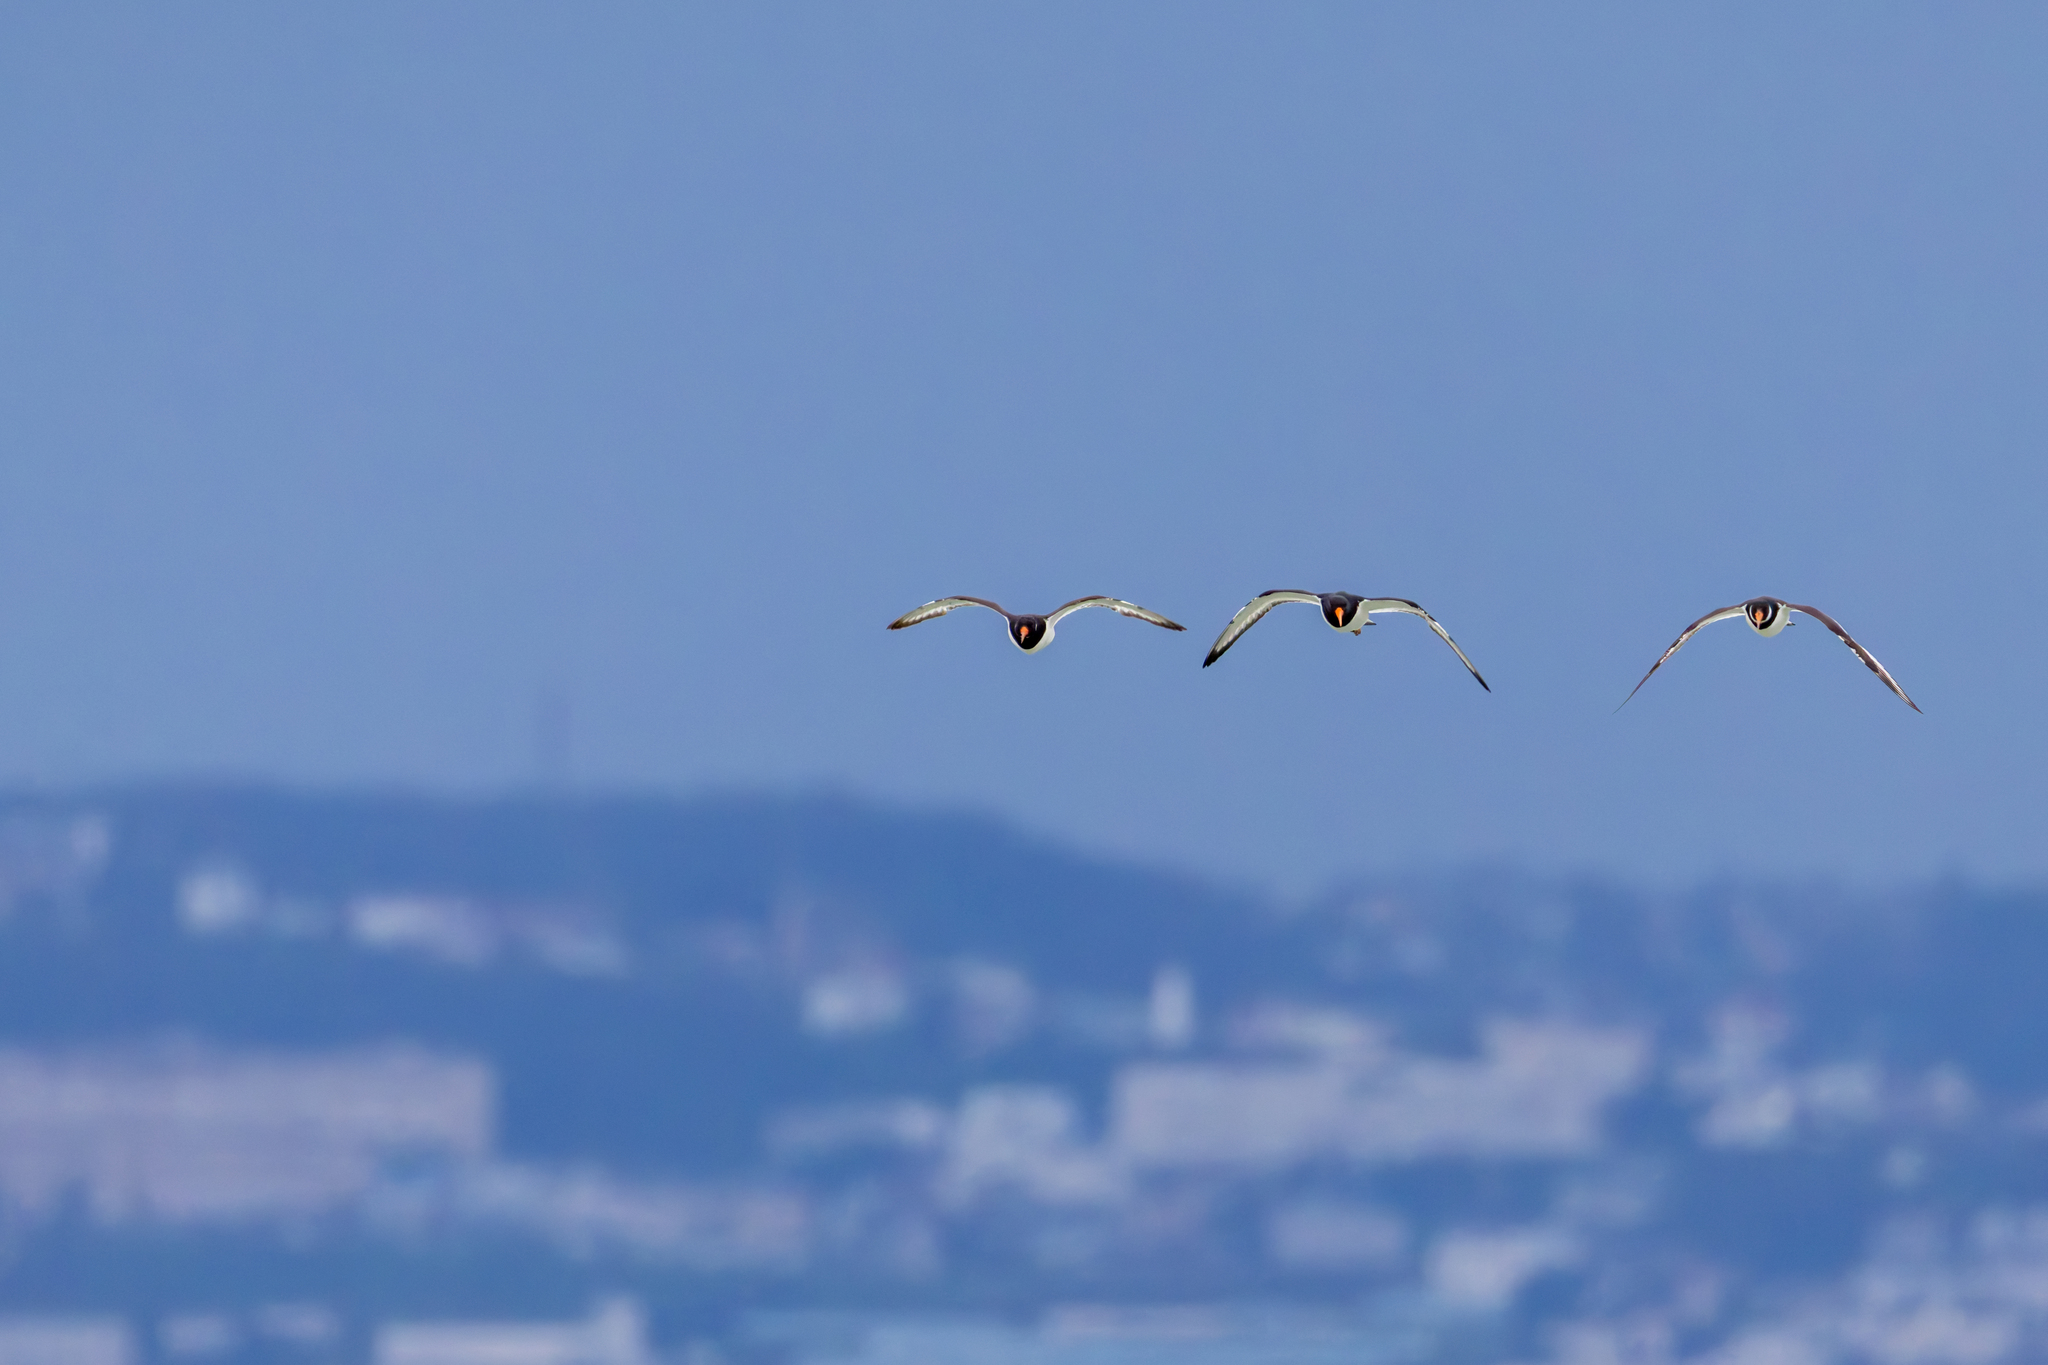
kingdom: Animalia
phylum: Chordata
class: Aves
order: Charadriiformes
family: Haematopodidae
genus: Haematopus
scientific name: Haematopus ostralegus
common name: Eurasian oystercatcher
